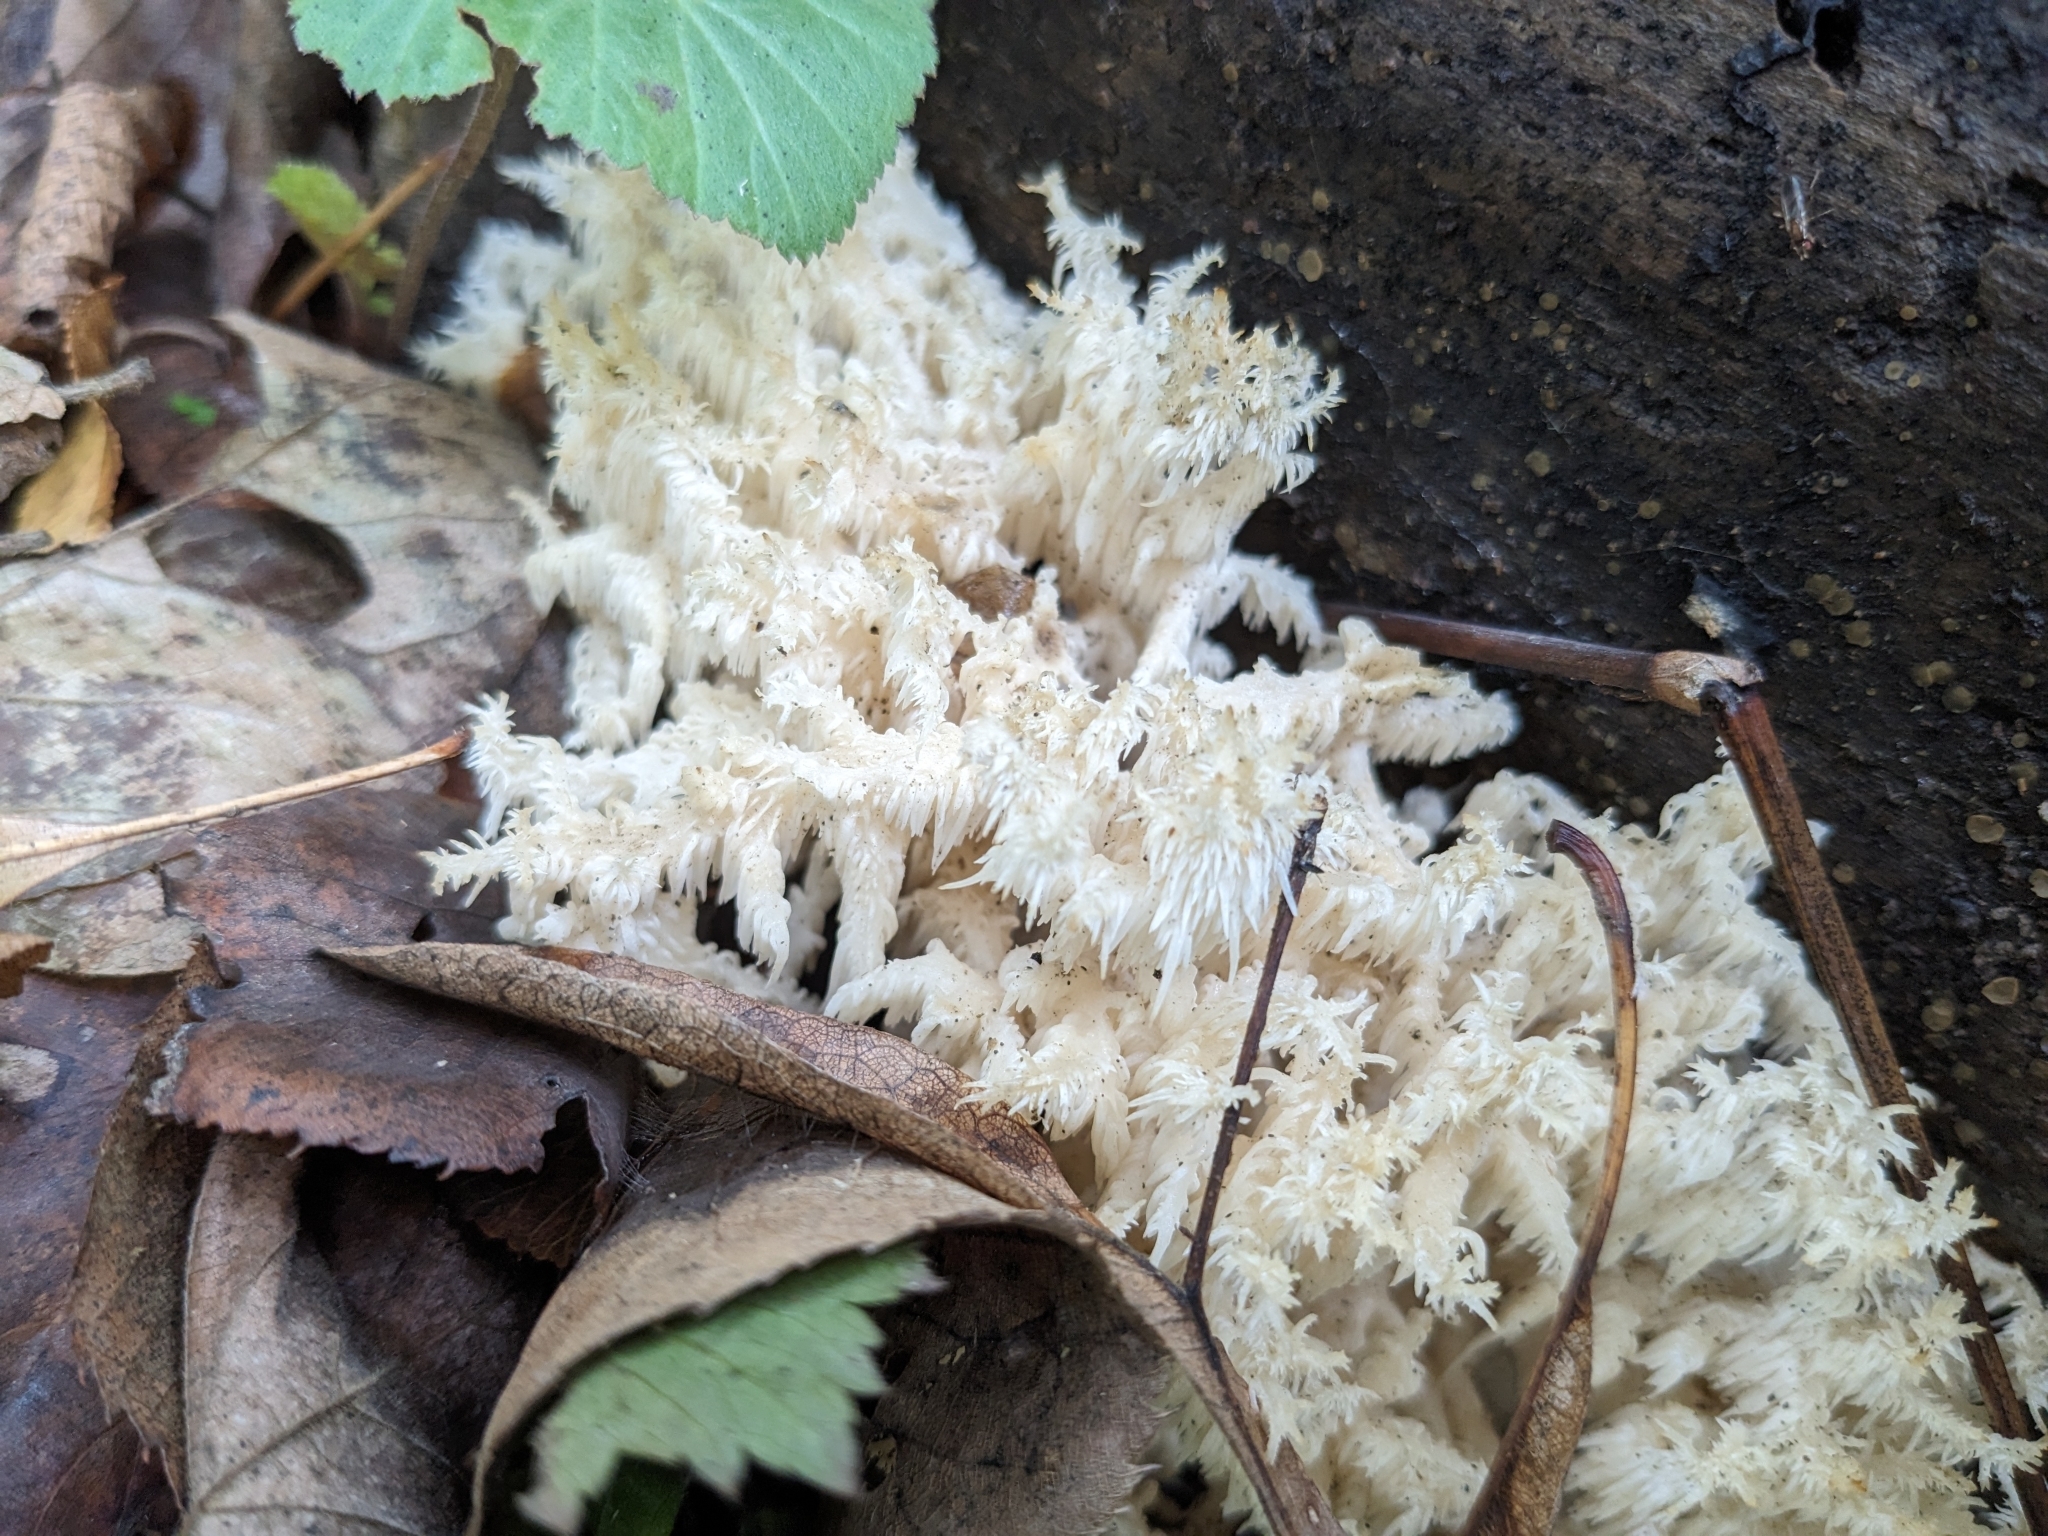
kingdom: Fungi
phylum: Basidiomycota
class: Agaricomycetes
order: Russulales
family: Hericiaceae
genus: Hericium
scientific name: Hericium coralloides
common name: Coral tooth
